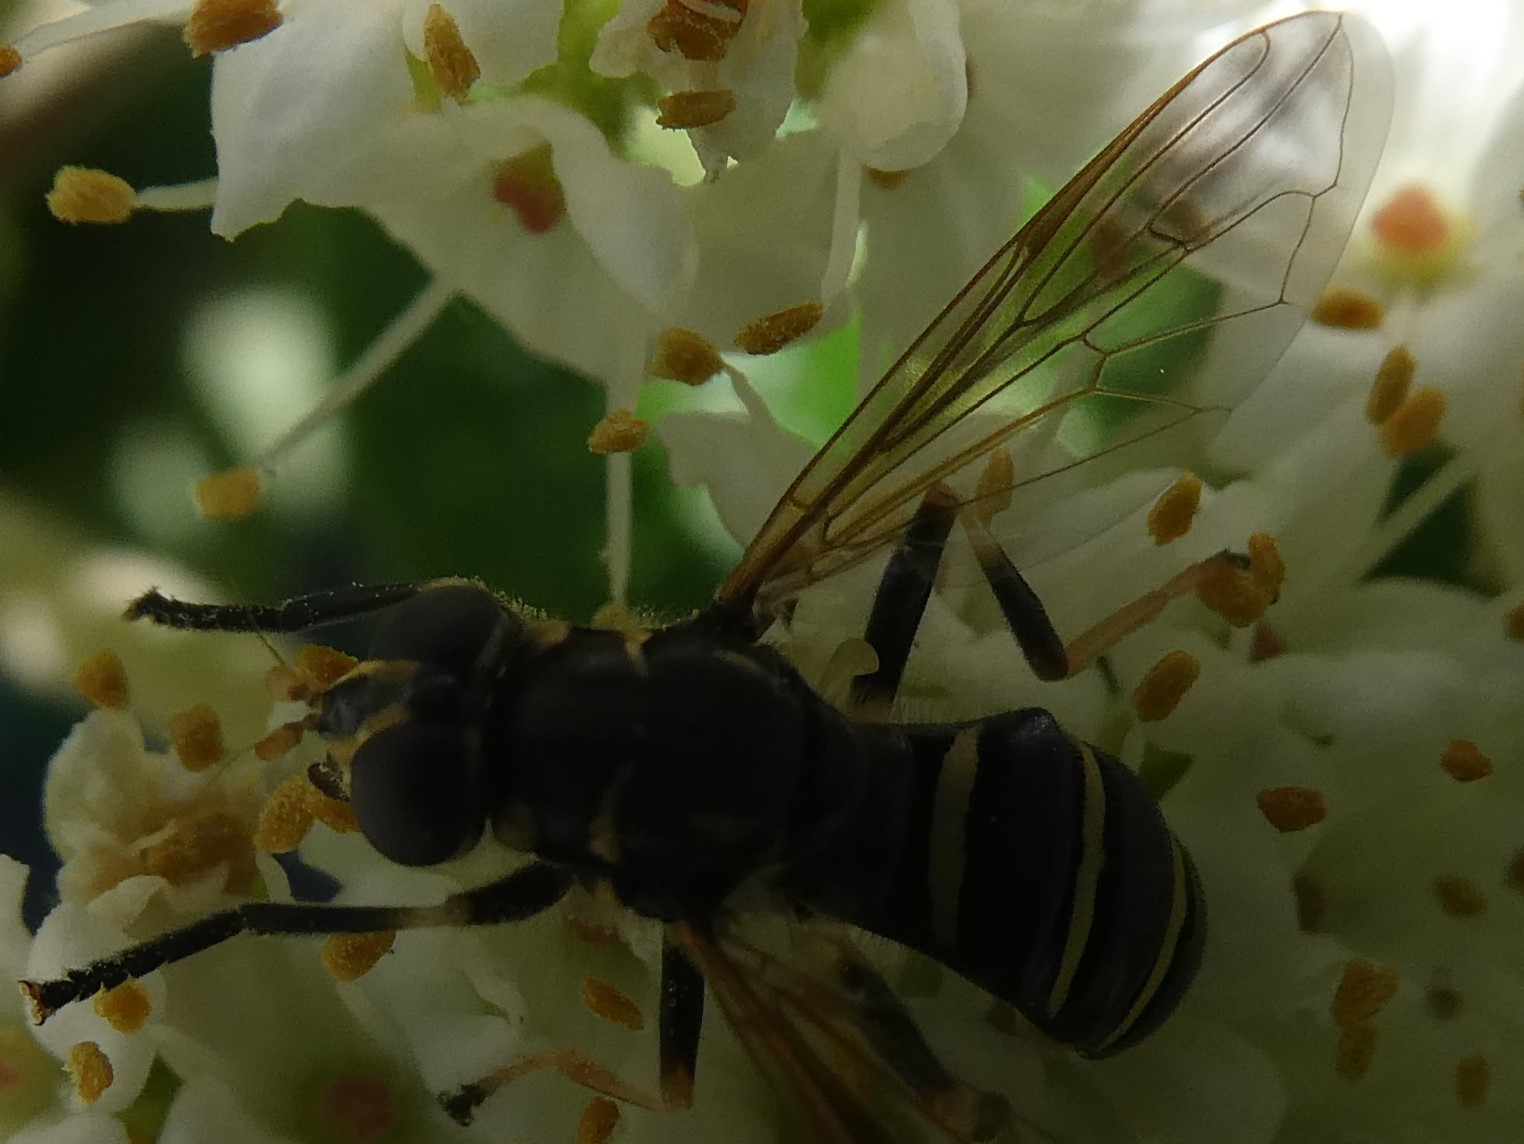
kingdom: Animalia
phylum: Arthropoda
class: Insecta
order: Diptera
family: Syrphidae
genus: Temnostoma
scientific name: Temnostoma
